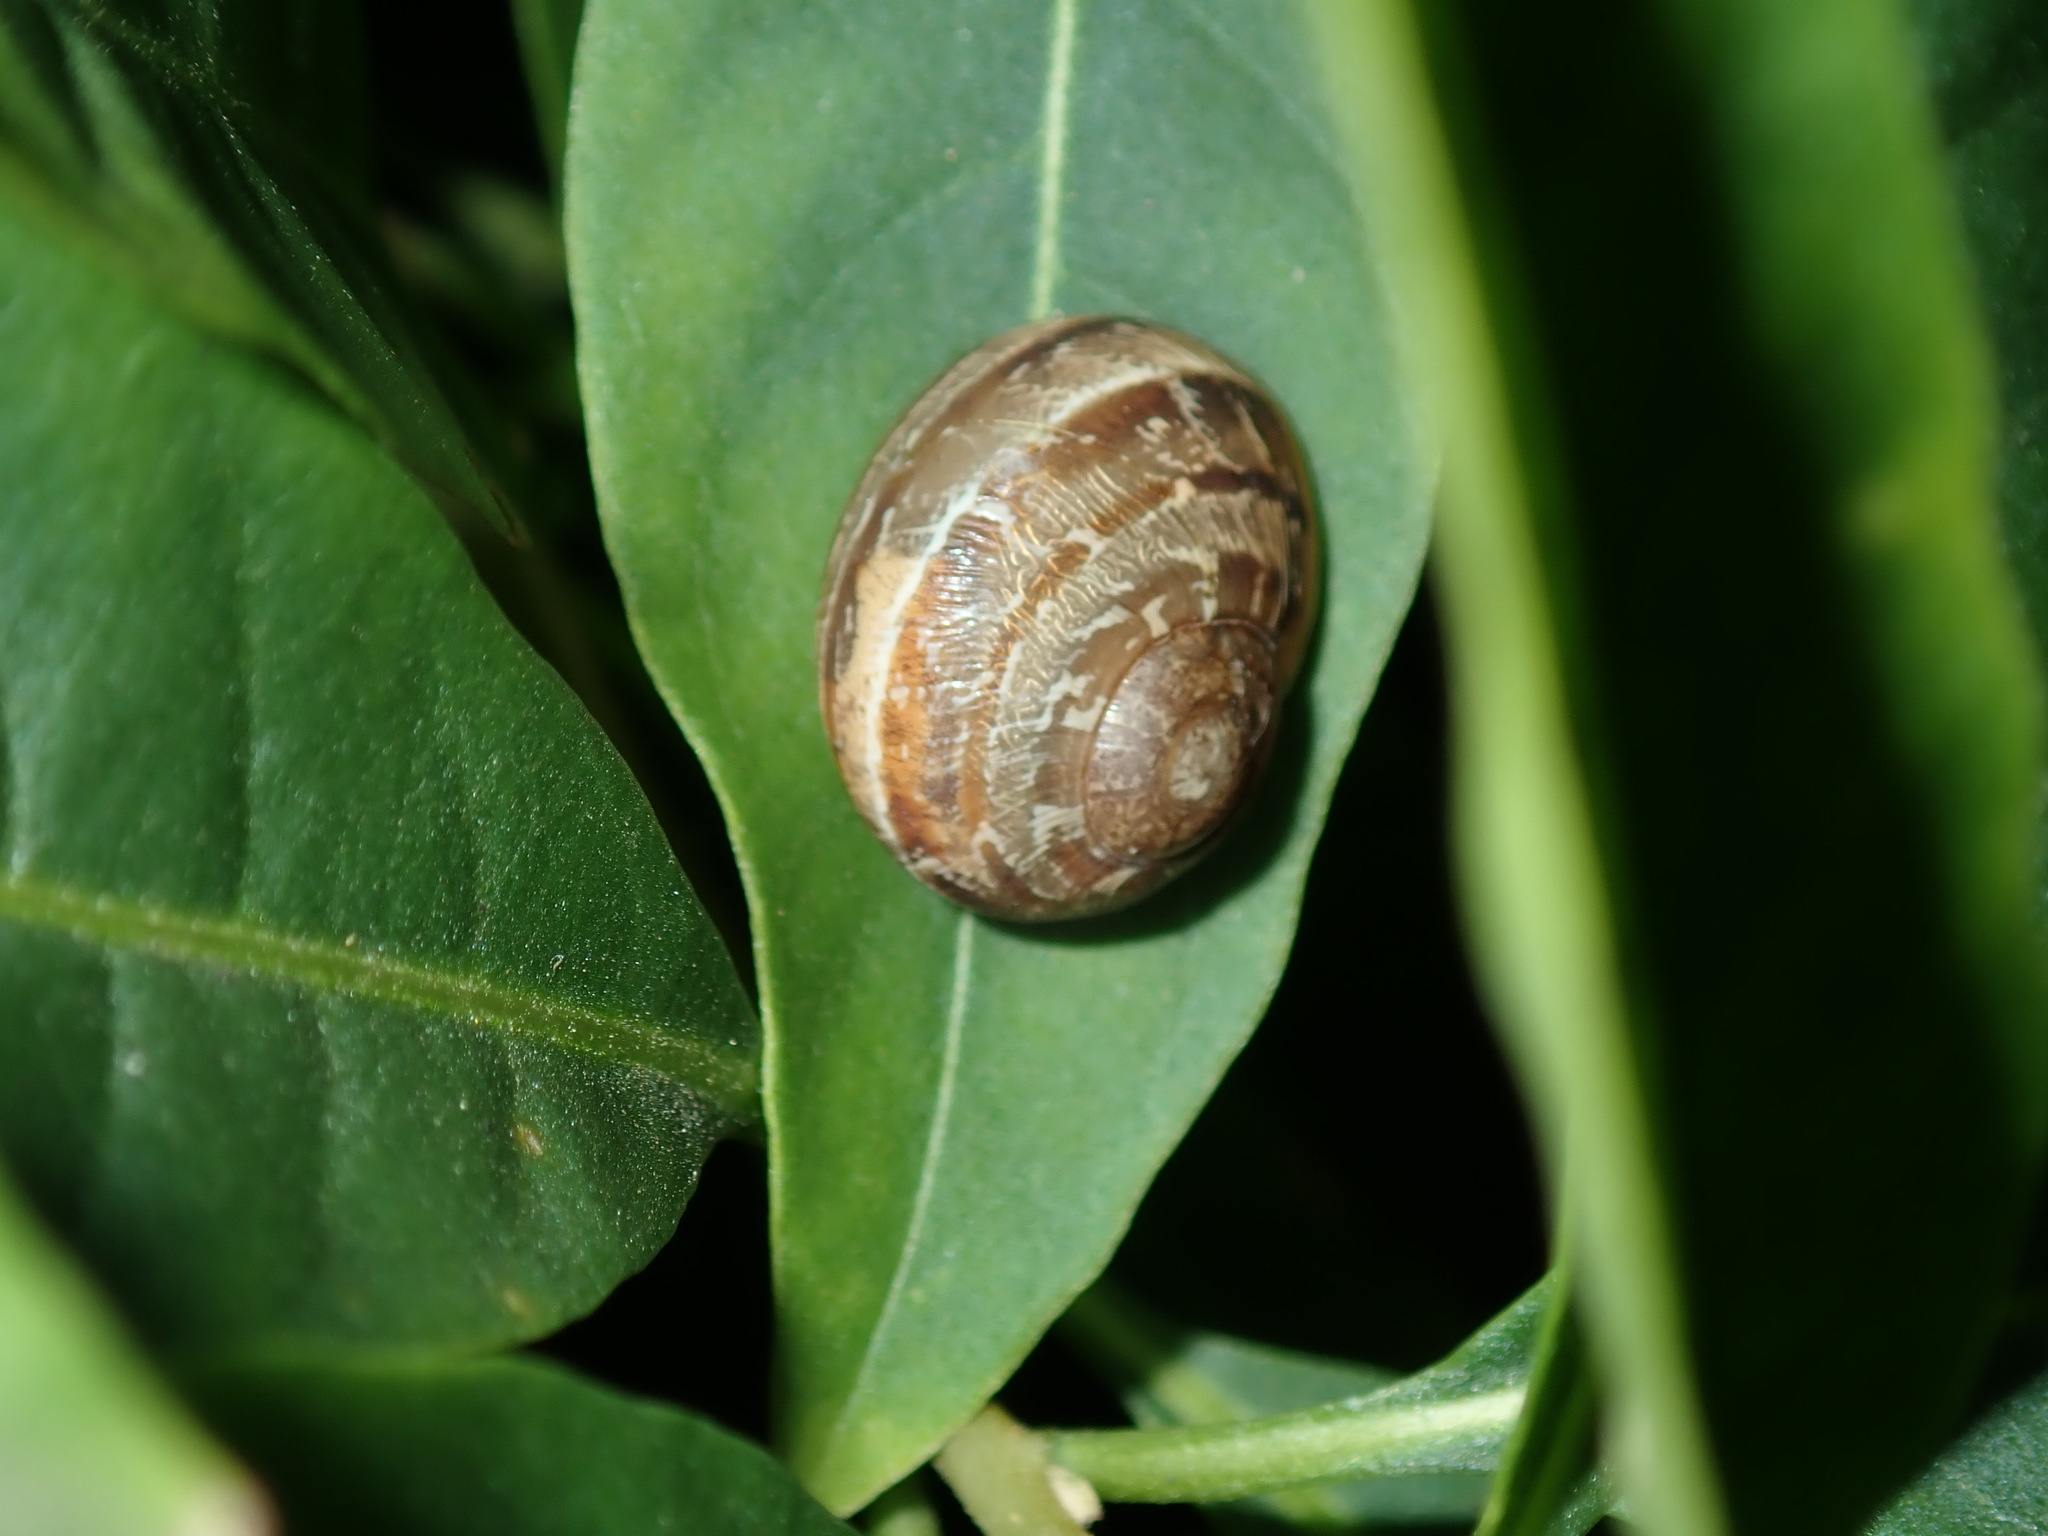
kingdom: Animalia
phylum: Mollusca
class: Gastropoda
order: Stylommatophora
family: Helicidae
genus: Cornu
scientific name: Cornu aspersum
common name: Brown garden snail
